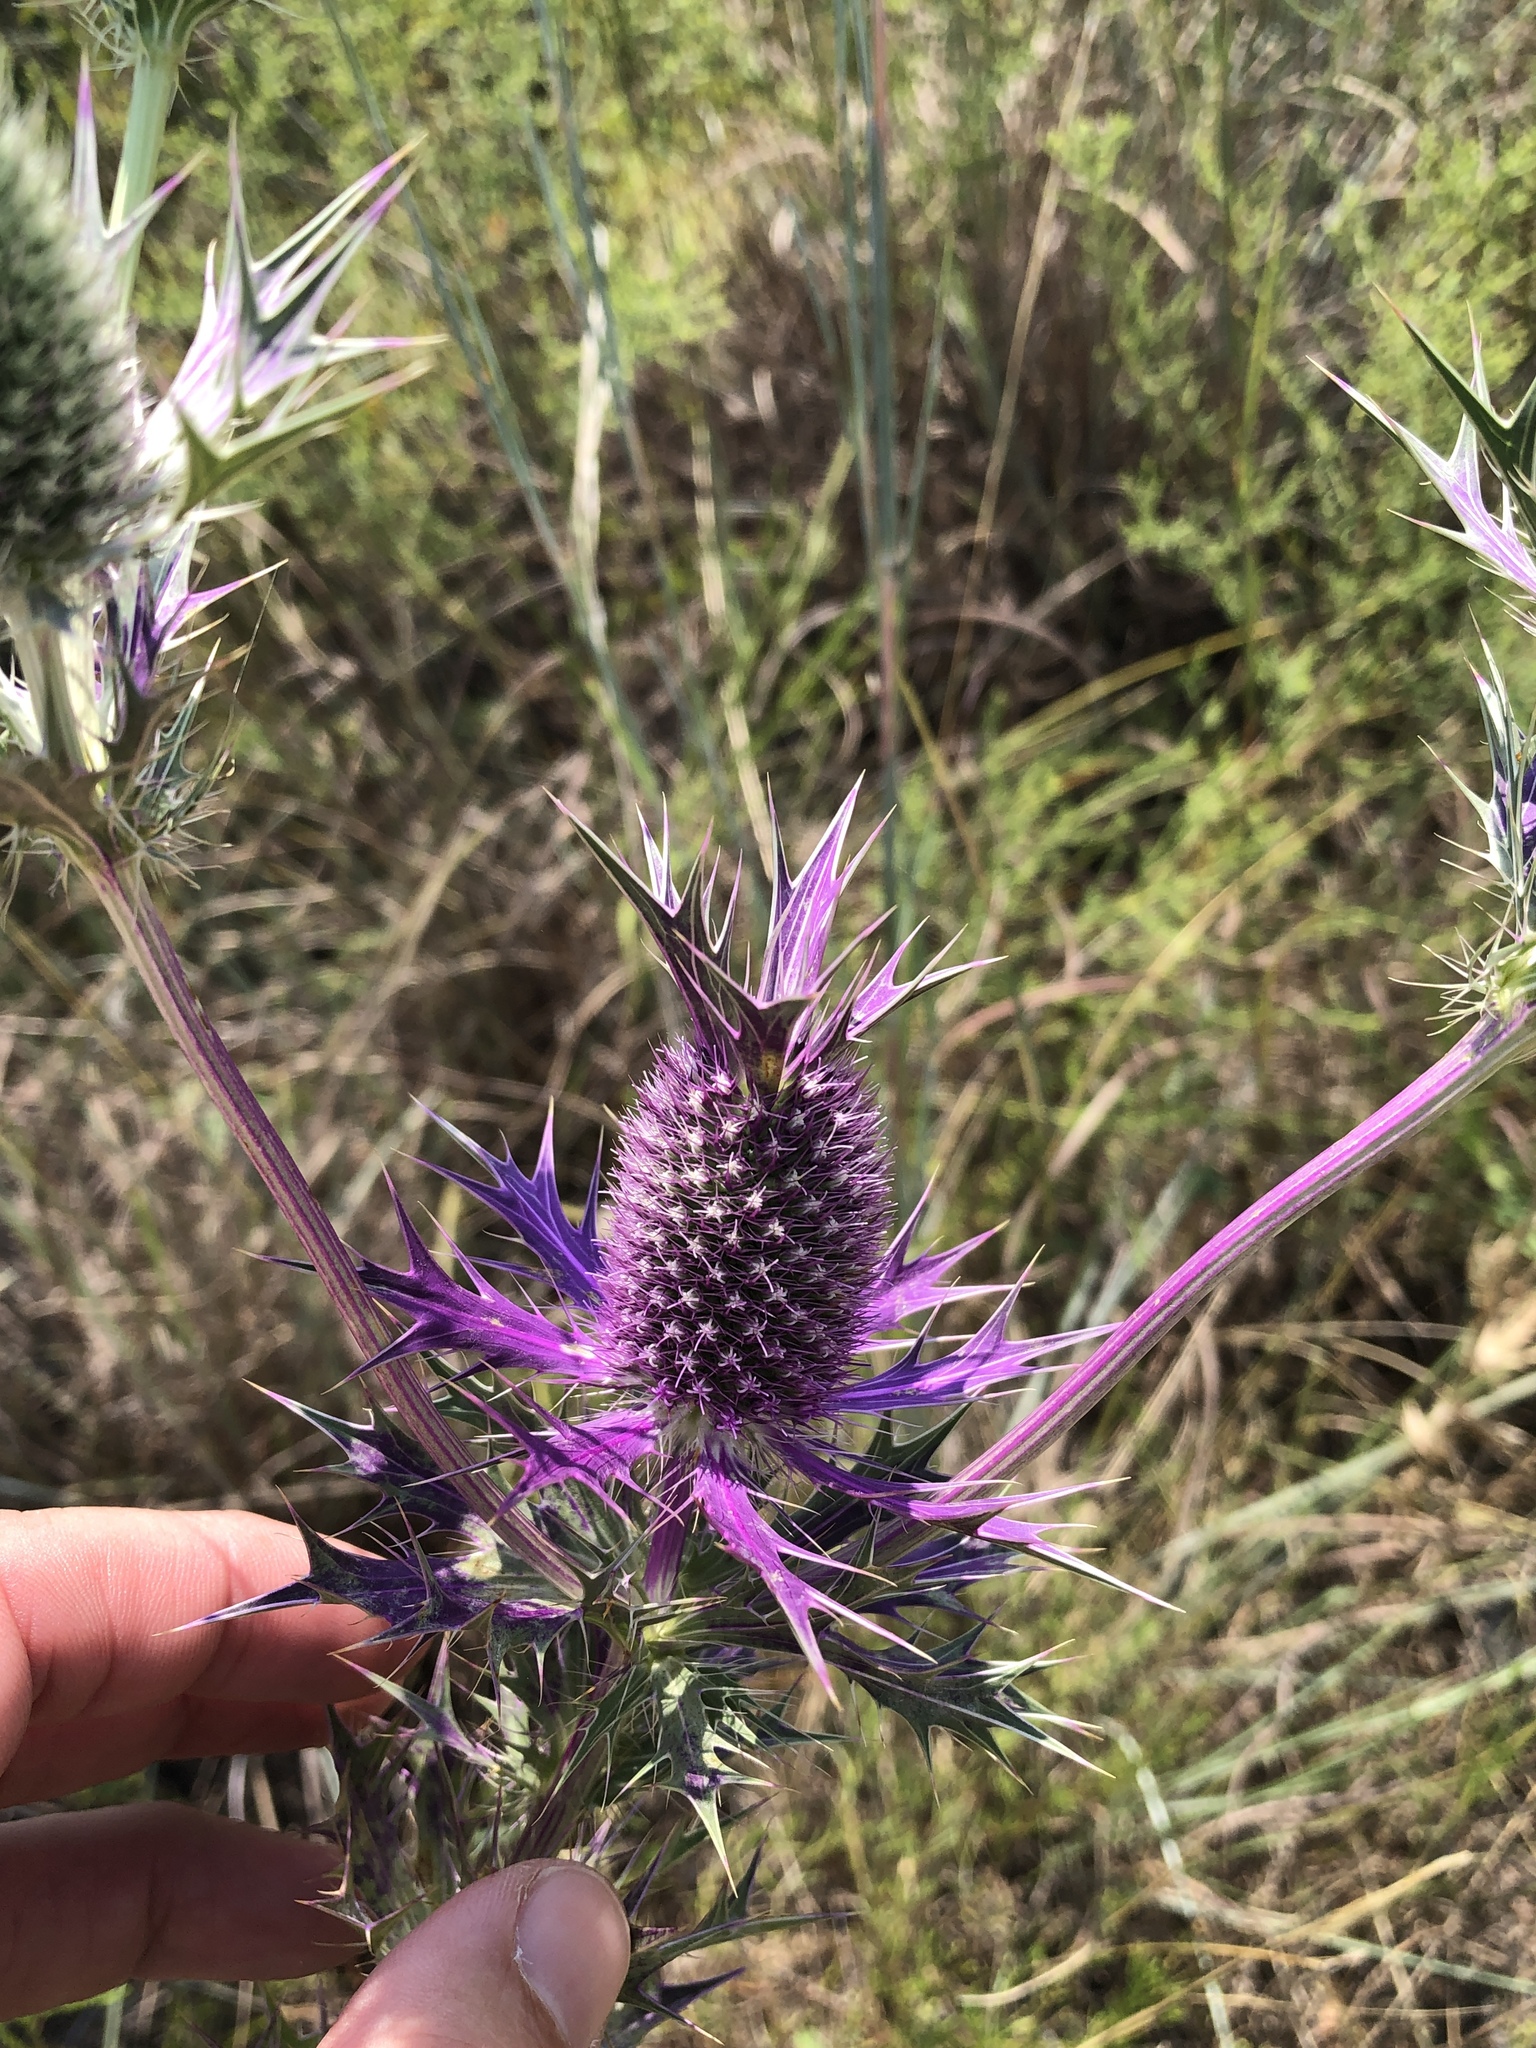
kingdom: Plantae
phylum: Tracheophyta
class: Magnoliopsida
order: Apiales
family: Apiaceae
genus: Eryngium
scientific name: Eryngium leavenworthii
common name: Leavenworth's eryngo
